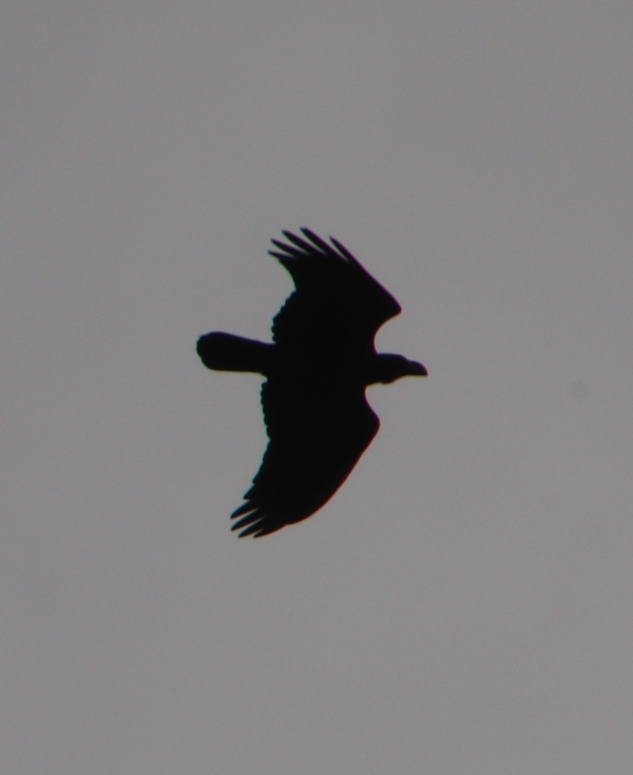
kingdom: Animalia
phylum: Chordata
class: Aves
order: Passeriformes
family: Corvidae
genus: Corvus
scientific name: Corvus albicollis
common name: White-necked raven
